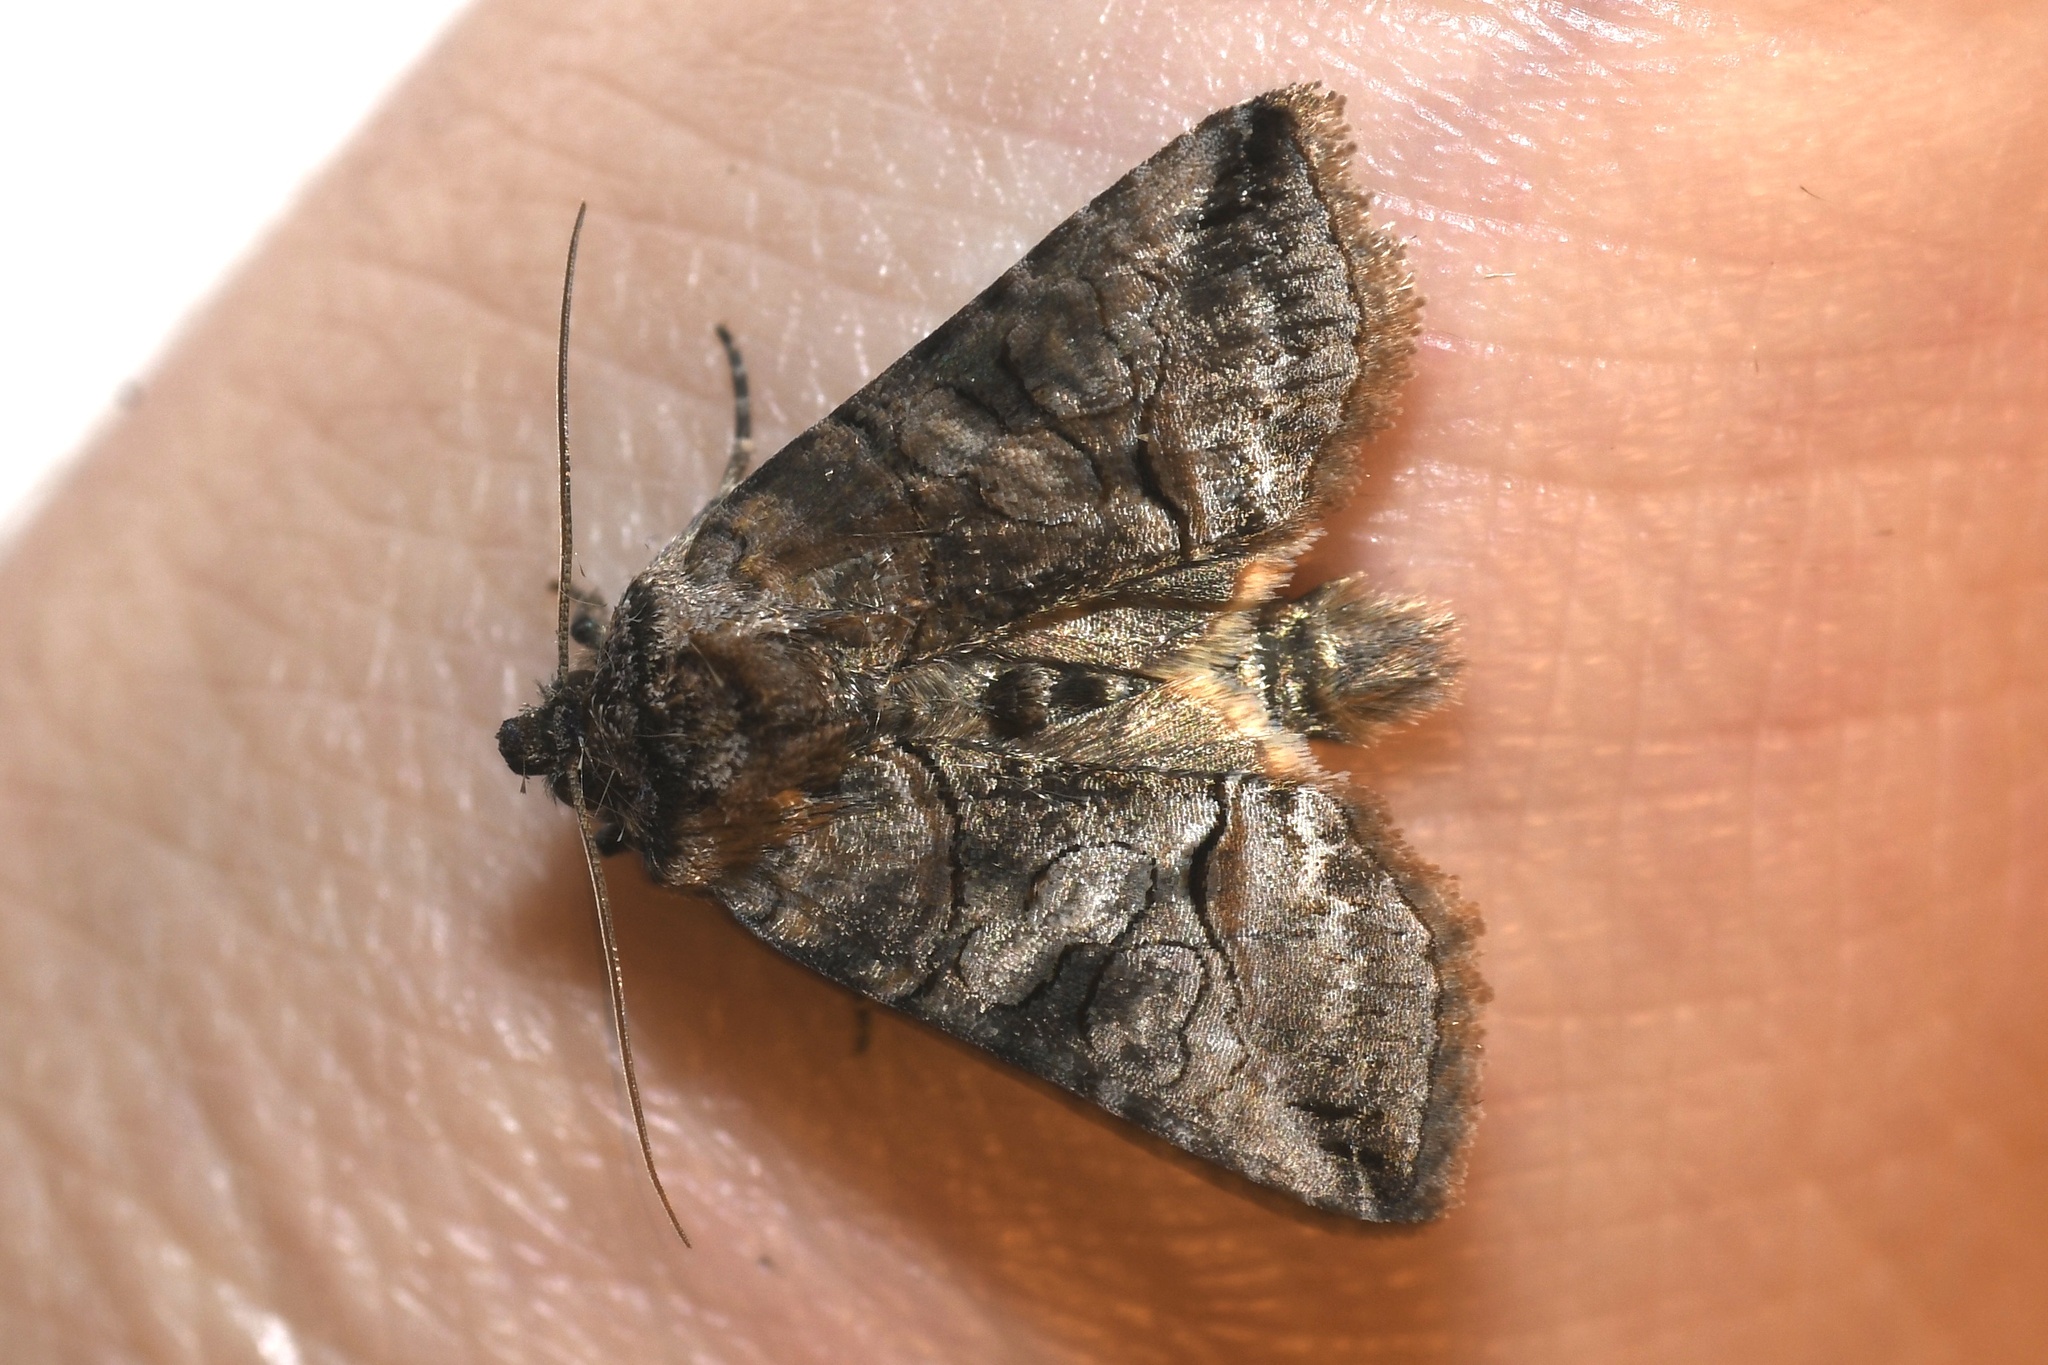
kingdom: Animalia
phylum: Arthropoda
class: Insecta
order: Lepidoptera
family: Noctuidae
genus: Abrostola
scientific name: Abrostola urentis
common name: Spectacled nettle moth
